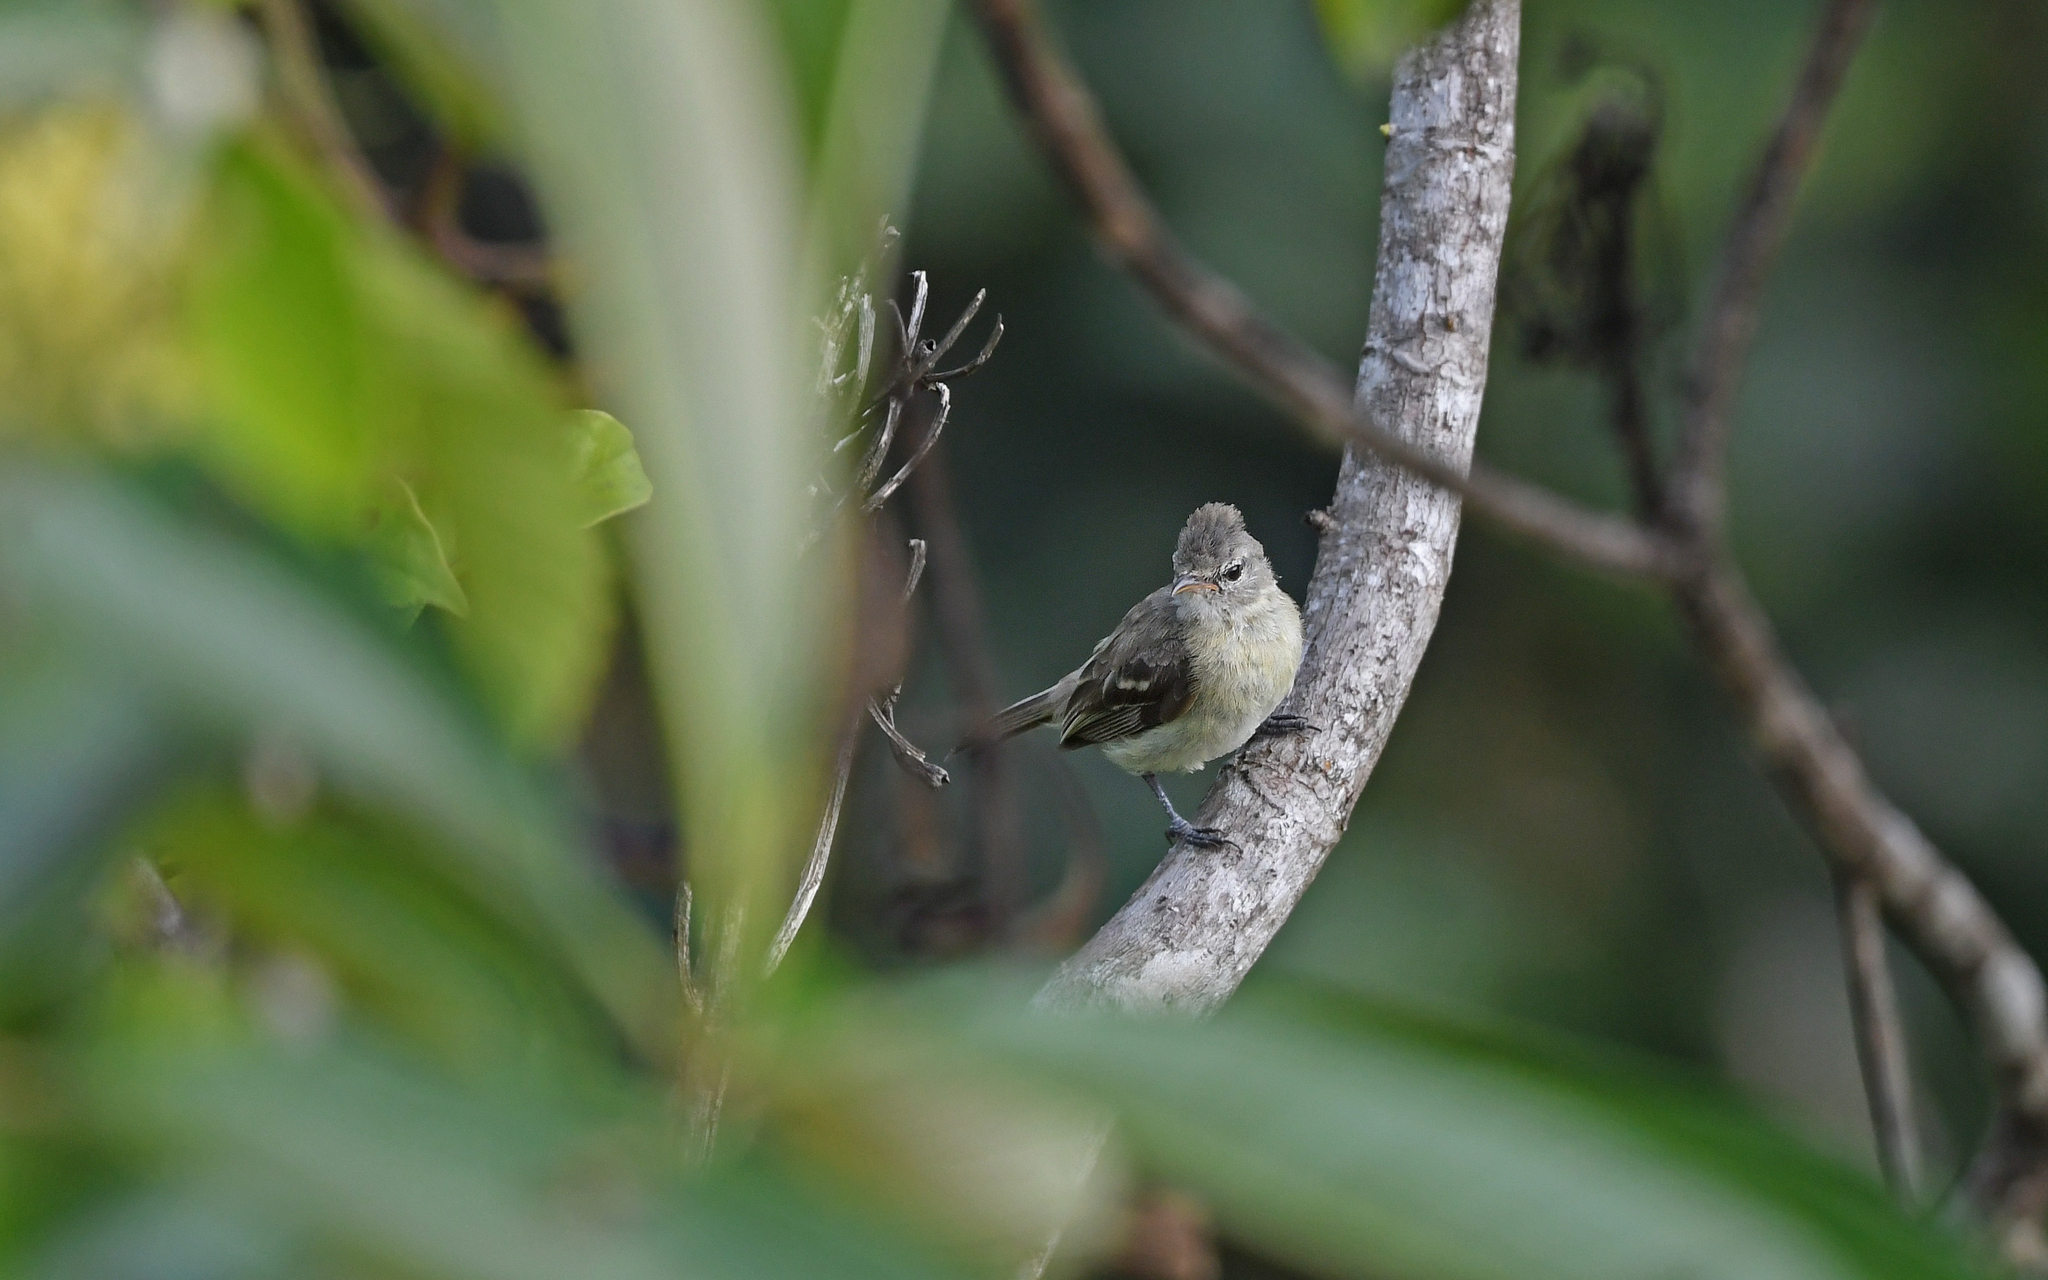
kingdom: Animalia
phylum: Chordata
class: Aves
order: Passeriformes
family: Tyrannidae
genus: Camptostoma
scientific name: Camptostoma obsoletum
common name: Southern beardless-tyrannulet
